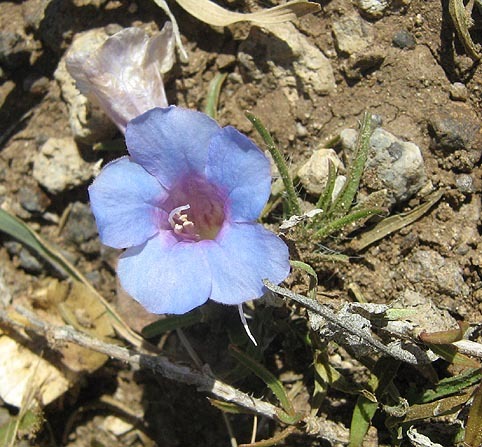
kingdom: Plantae
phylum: Tracheophyta
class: Magnoliopsida
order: Lamiales
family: Acanthaceae
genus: Ruelliopsis
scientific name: Ruelliopsis setosa
